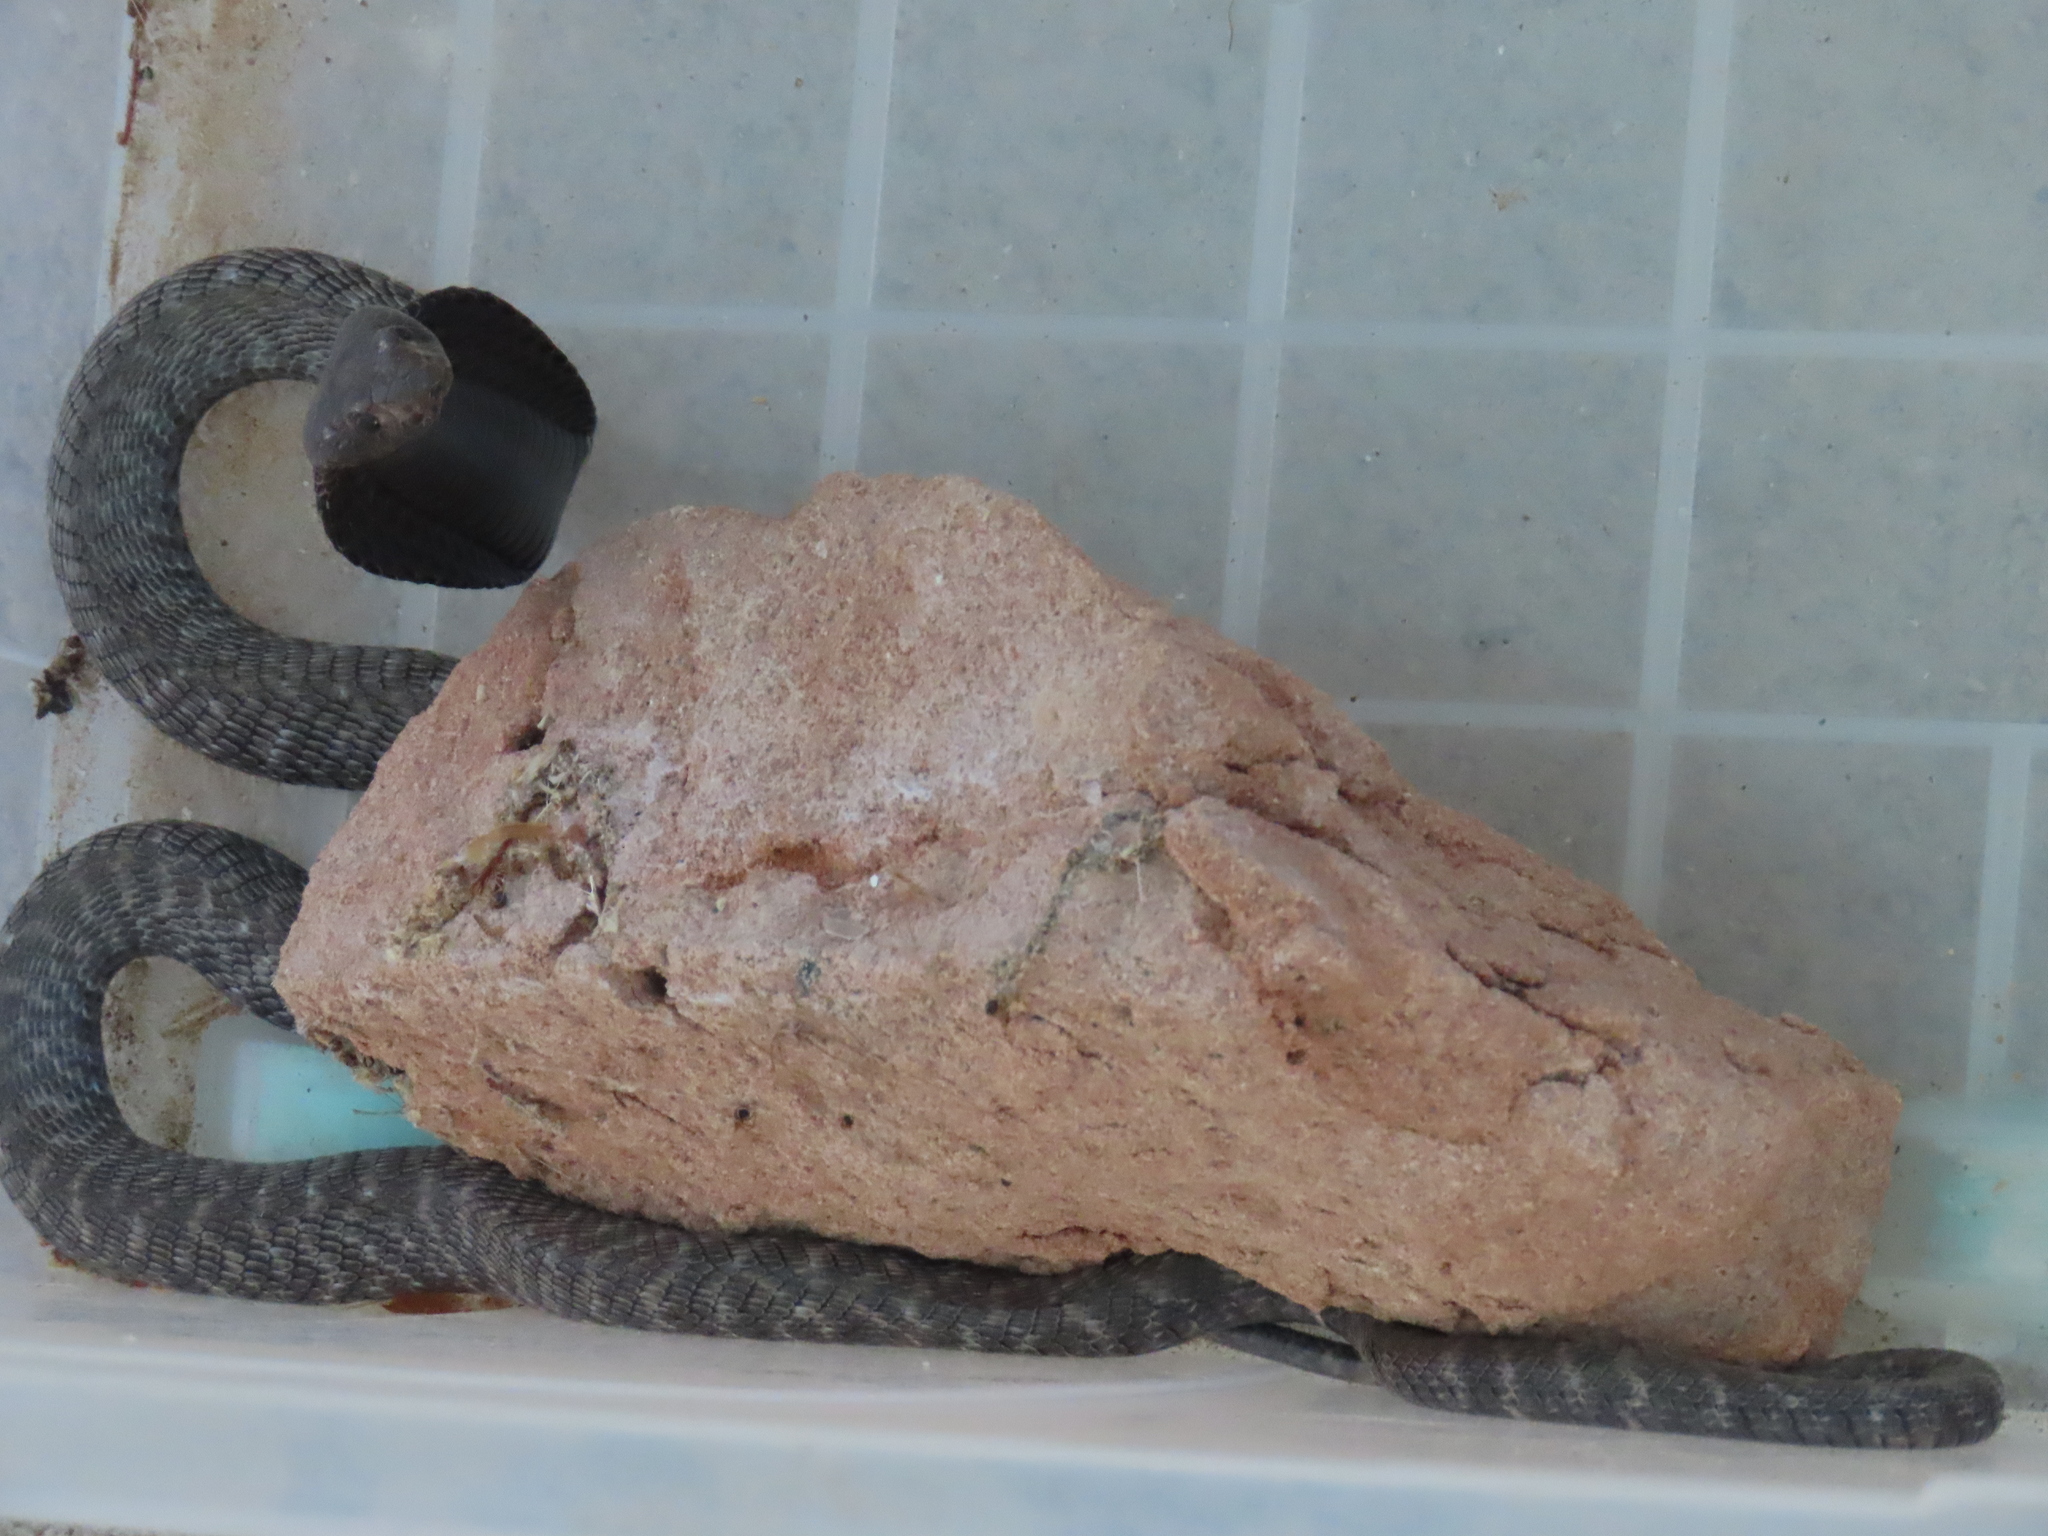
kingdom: Animalia
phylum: Chordata
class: Squamata
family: Elapidae
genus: Naja
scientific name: Naja nigricincta
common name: Black spitting cobra
